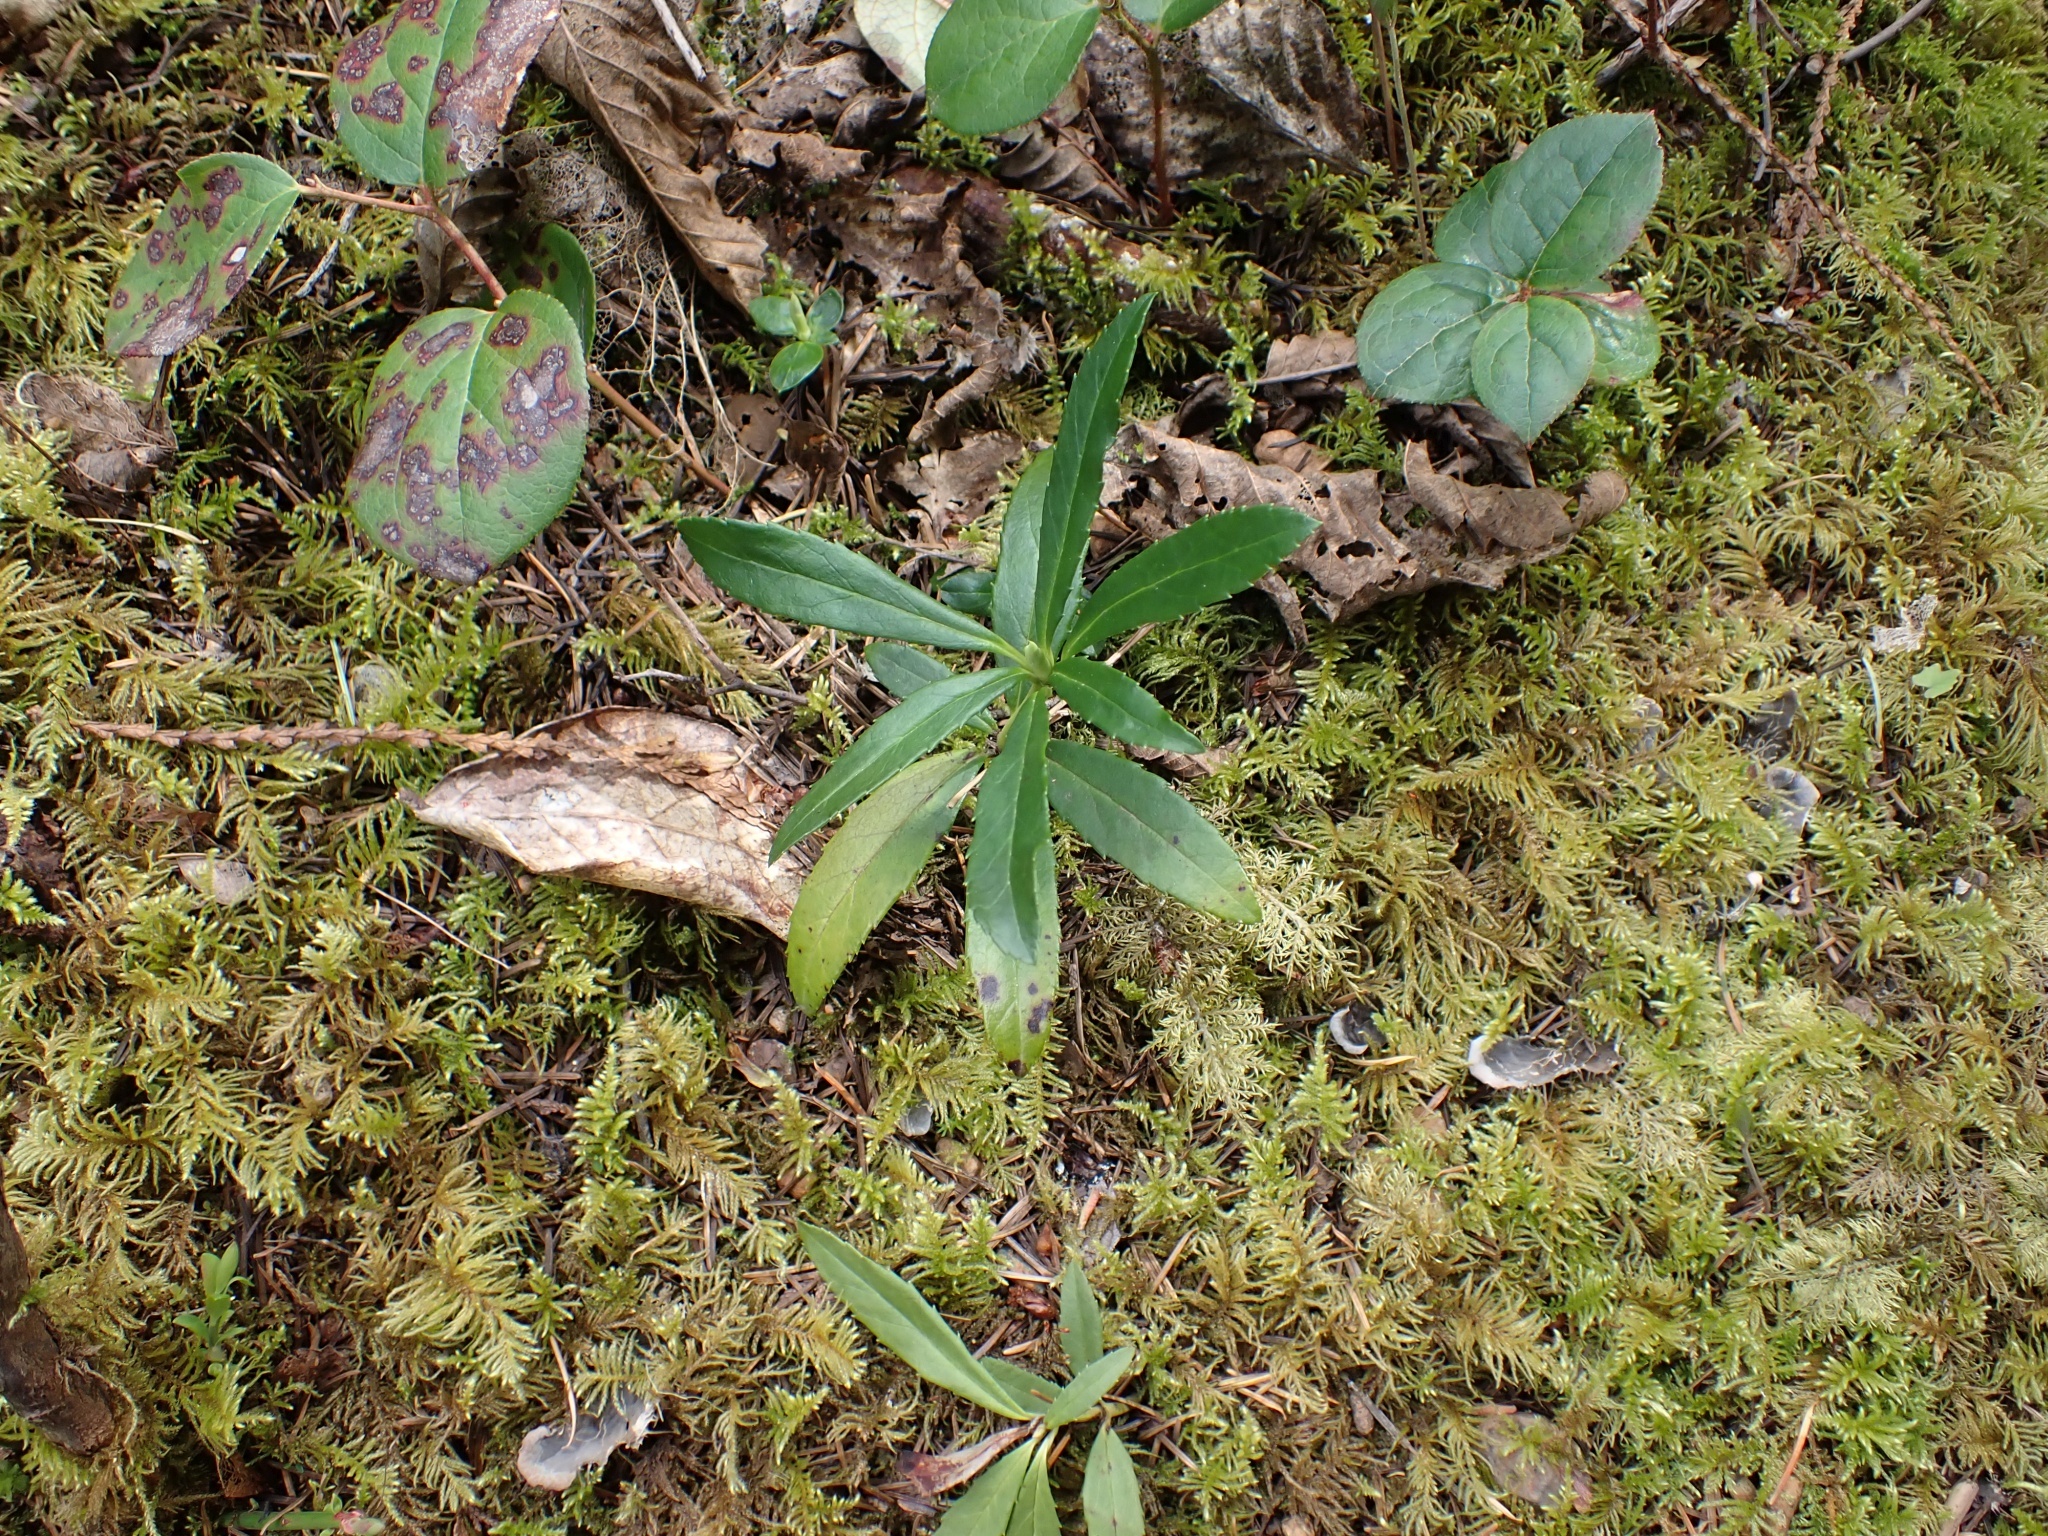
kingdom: Plantae
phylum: Tracheophyta
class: Magnoliopsida
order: Ericales
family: Ericaceae
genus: Chimaphila
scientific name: Chimaphila umbellata
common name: Pipsissewa
